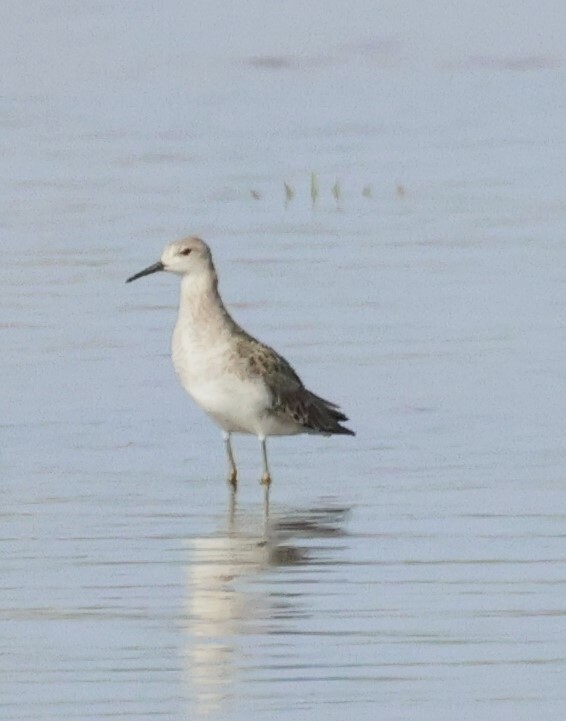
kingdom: Animalia
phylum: Chordata
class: Aves
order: Charadriiformes
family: Scolopacidae
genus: Calidris
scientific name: Calidris pugnax
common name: Ruff
